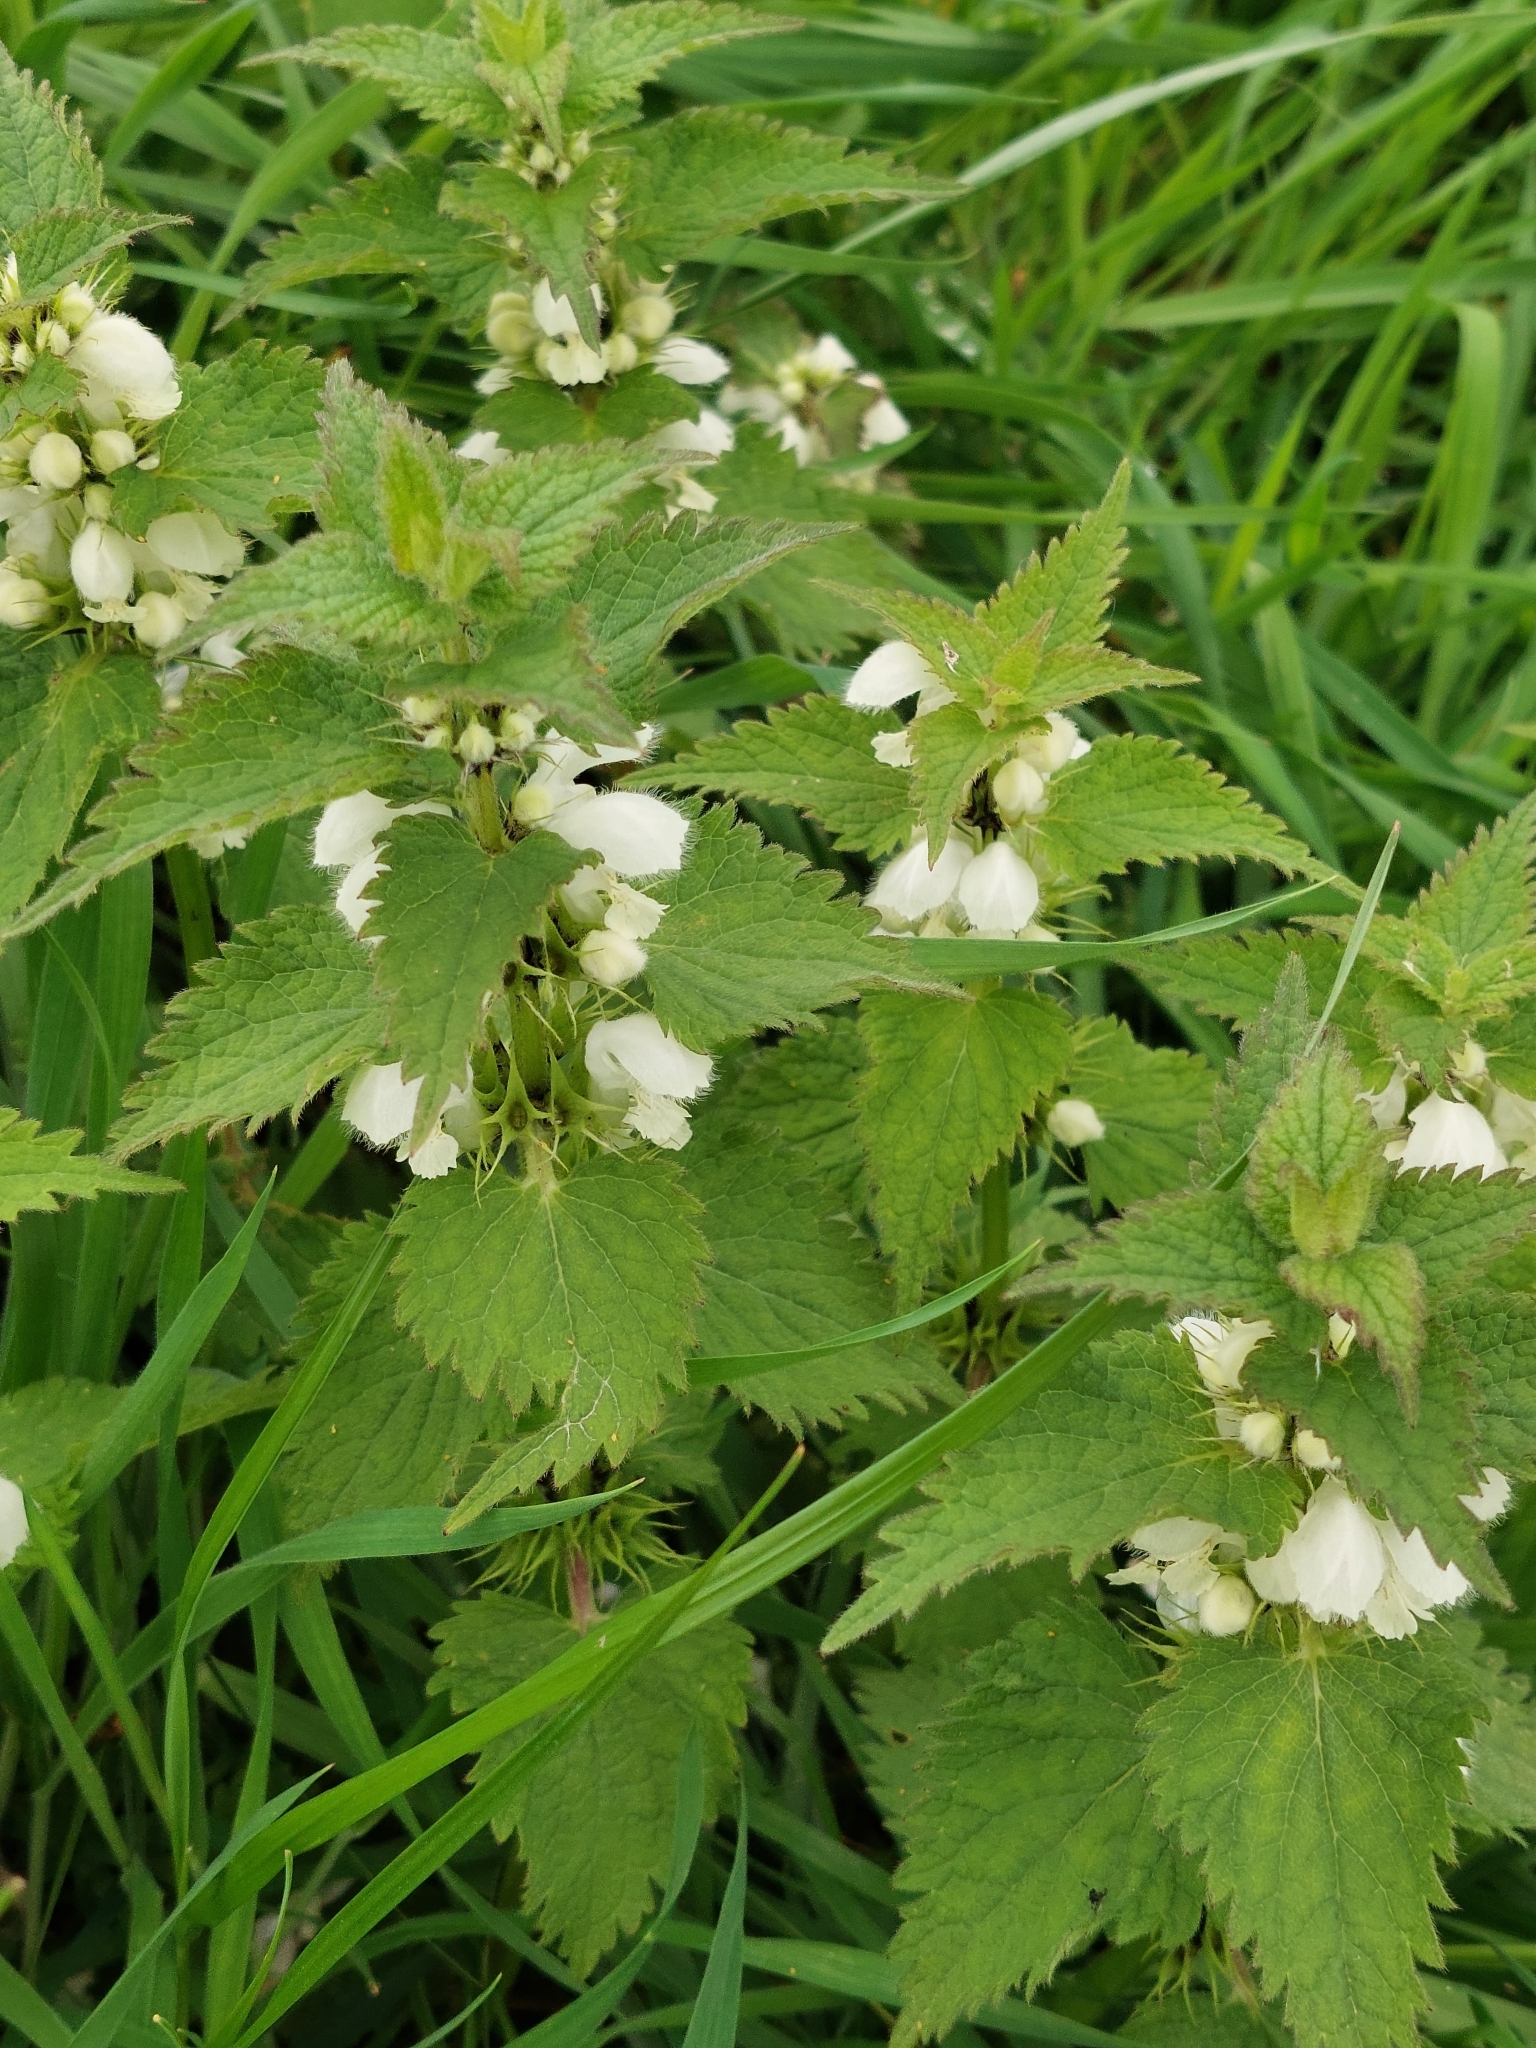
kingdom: Plantae
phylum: Tracheophyta
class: Magnoliopsida
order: Lamiales
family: Lamiaceae
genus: Lamium
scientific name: Lamium album
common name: White dead-nettle
